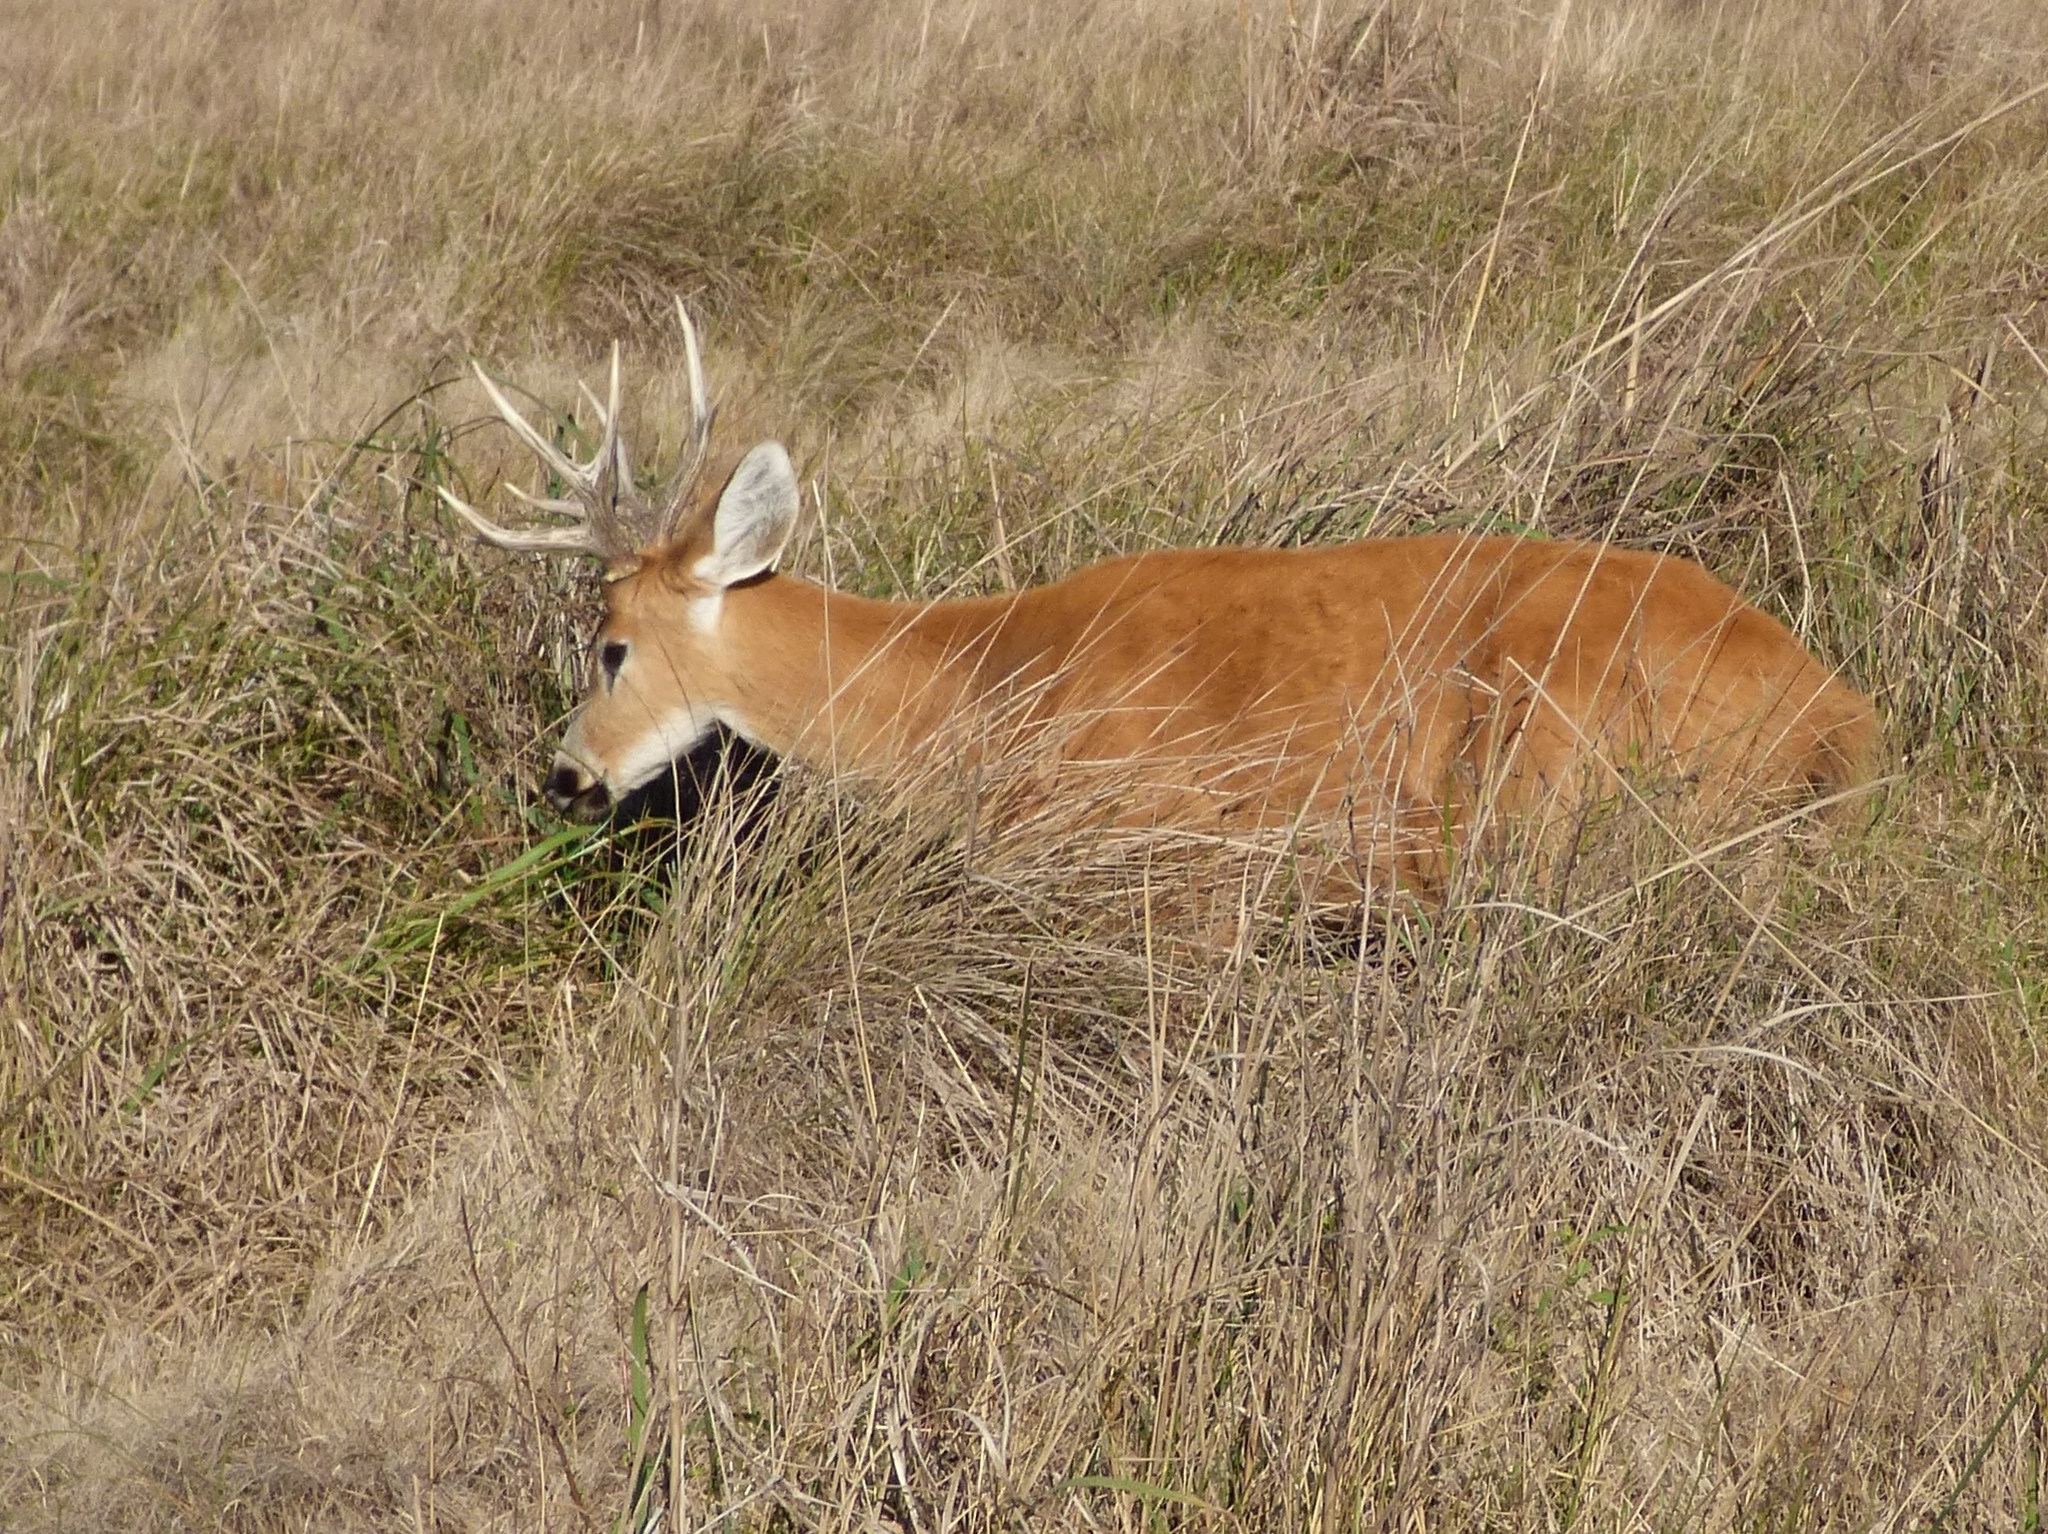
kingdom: Animalia
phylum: Chordata
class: Mammalia
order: Artiodactyla
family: Cervidae
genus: Blastocerus
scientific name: Blastocerus dichotomus
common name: Marsh deer
